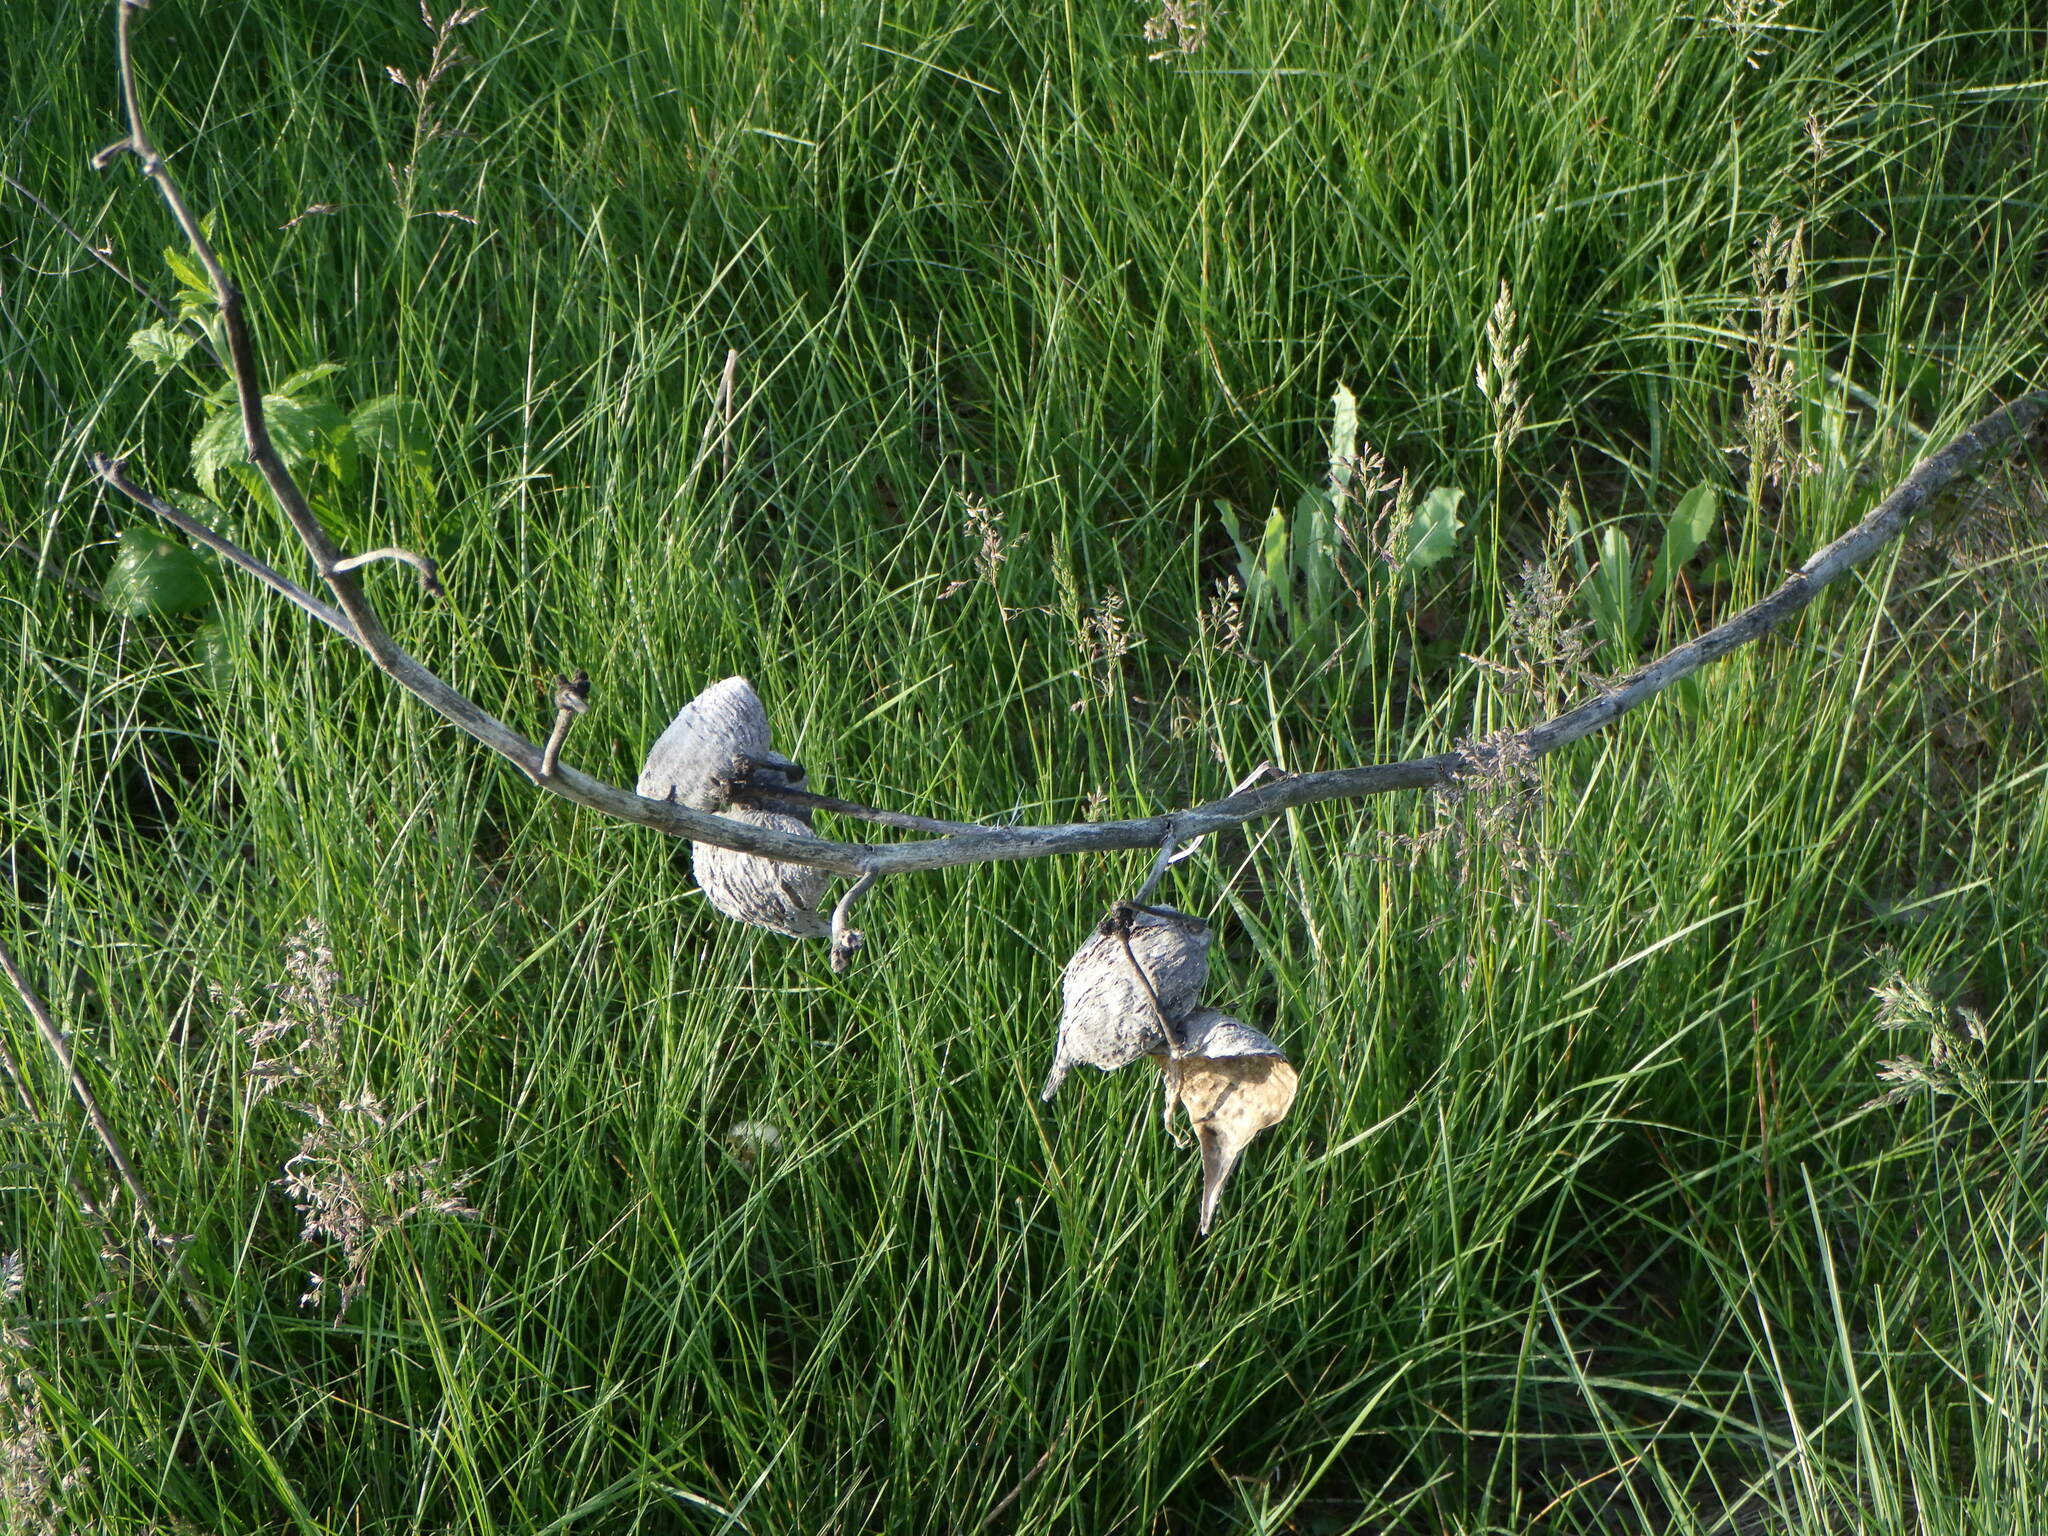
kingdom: Plantae
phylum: Tracheophyta
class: Magnoliopsida
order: Gentianales
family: Apocynaceae
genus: Asclepias
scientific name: Asclepias syriaca
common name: Common milkweed
